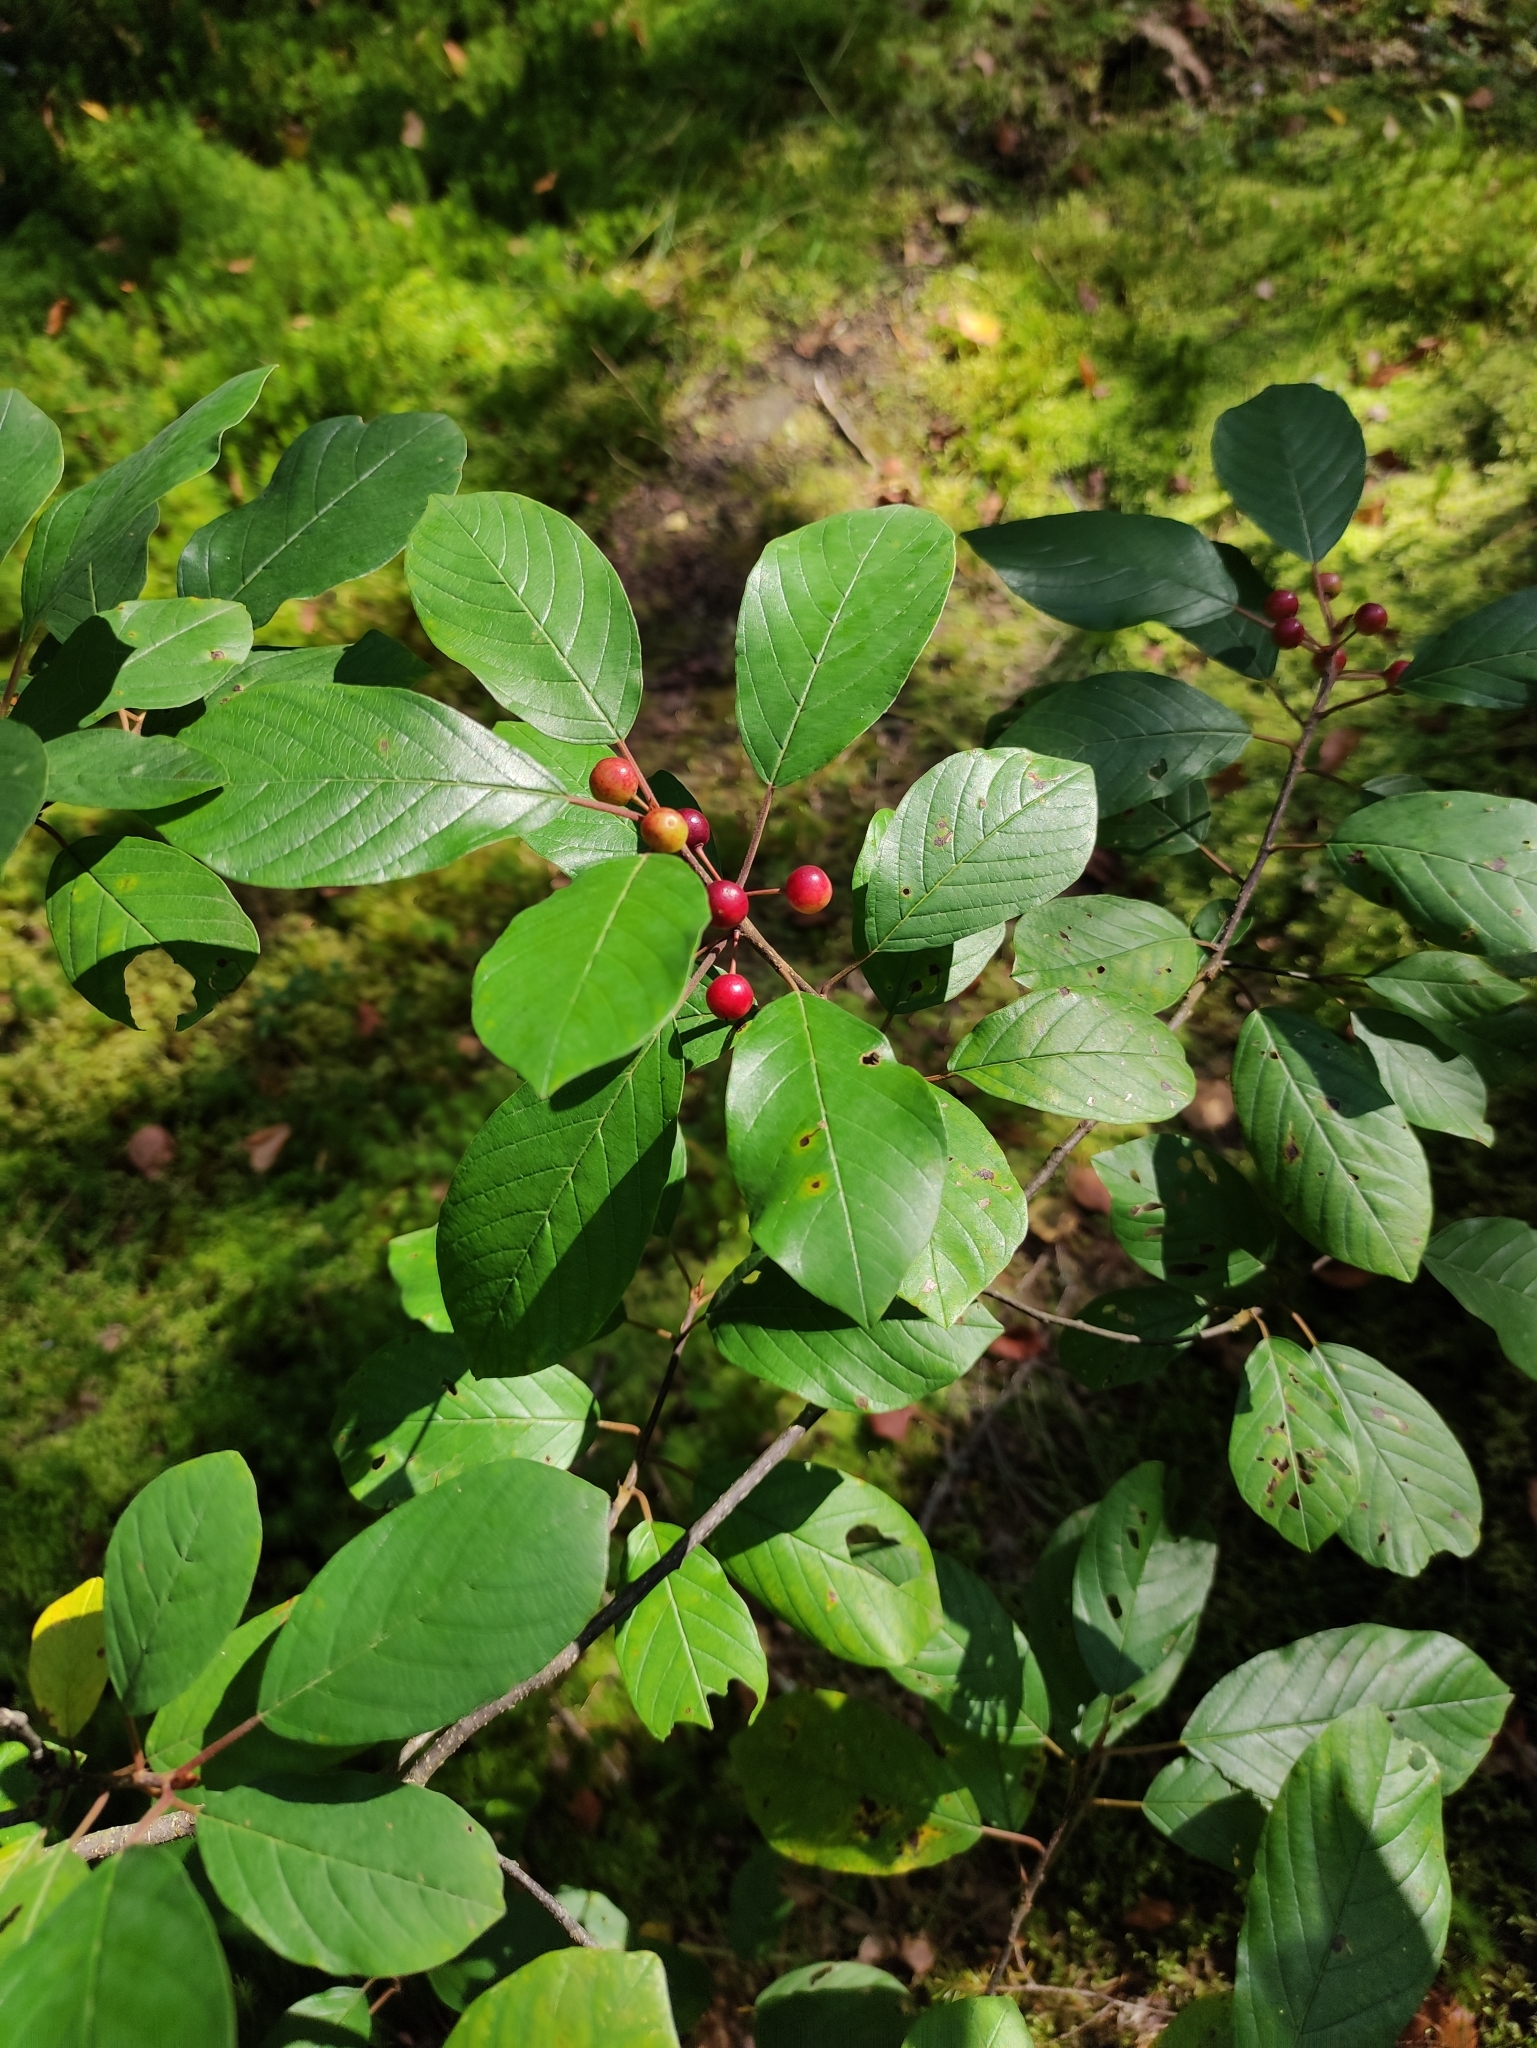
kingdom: Plantae
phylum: Tracheophyta
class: Magnoliopsida
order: Rosales
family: Rhamnaceae
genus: Frangula
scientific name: Frangula alnus
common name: Alder buckthorn
